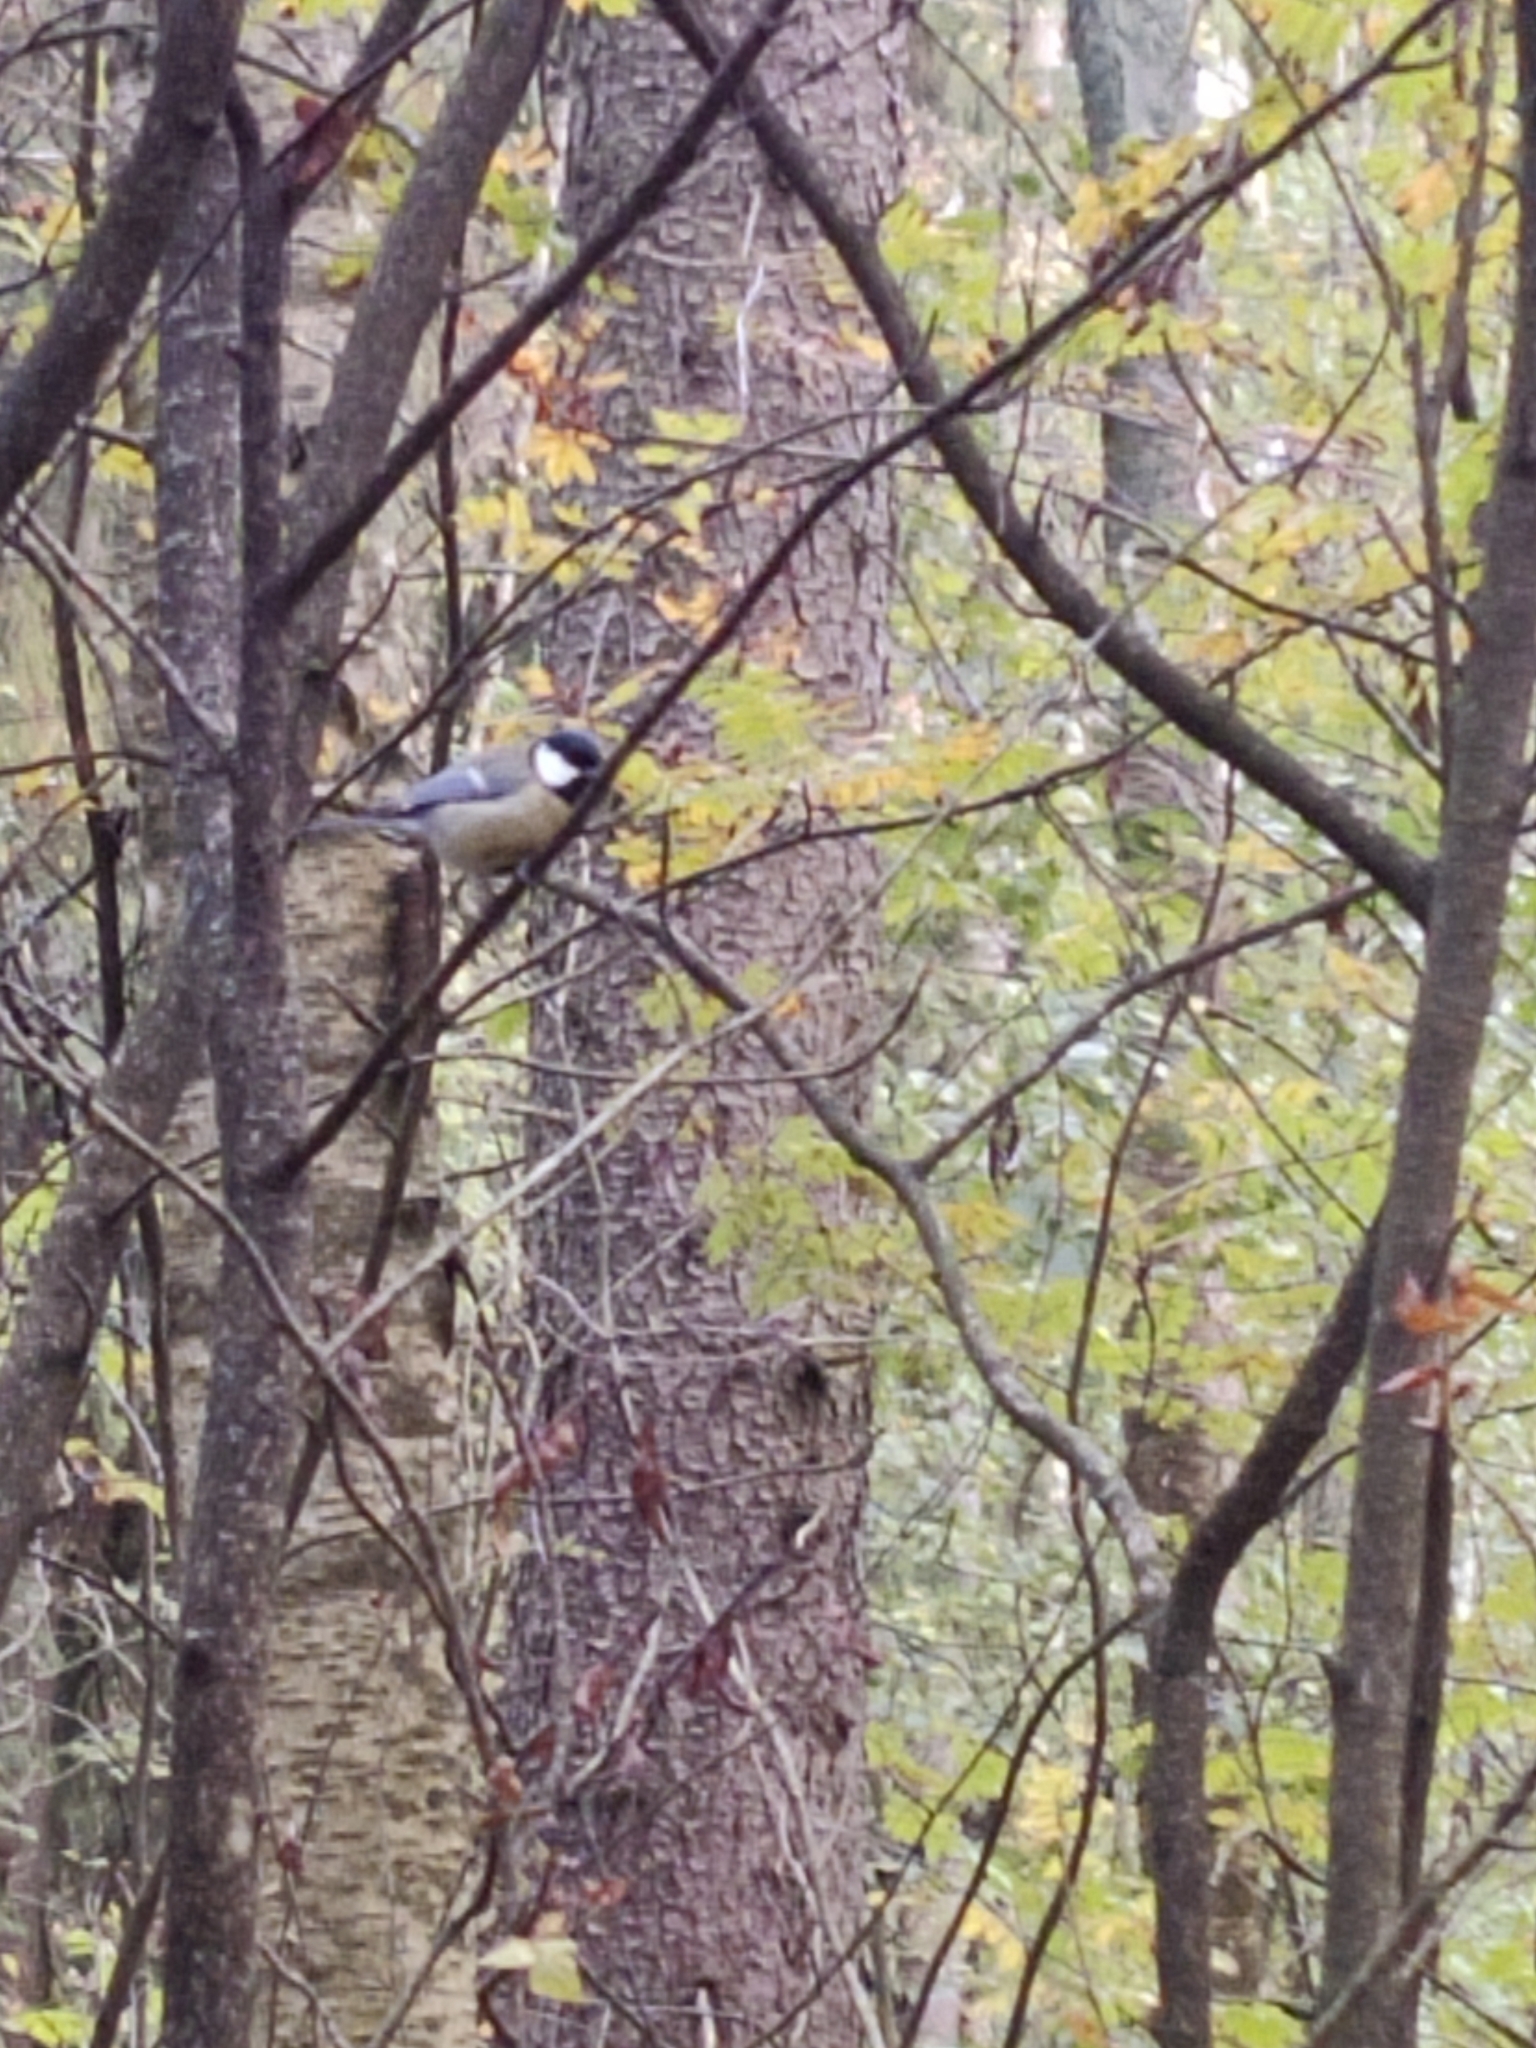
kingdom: Animalia
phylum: Chordata
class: Aves
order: Passeriformes
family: Paridae
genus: Parus
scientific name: Parus major
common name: Great tit
